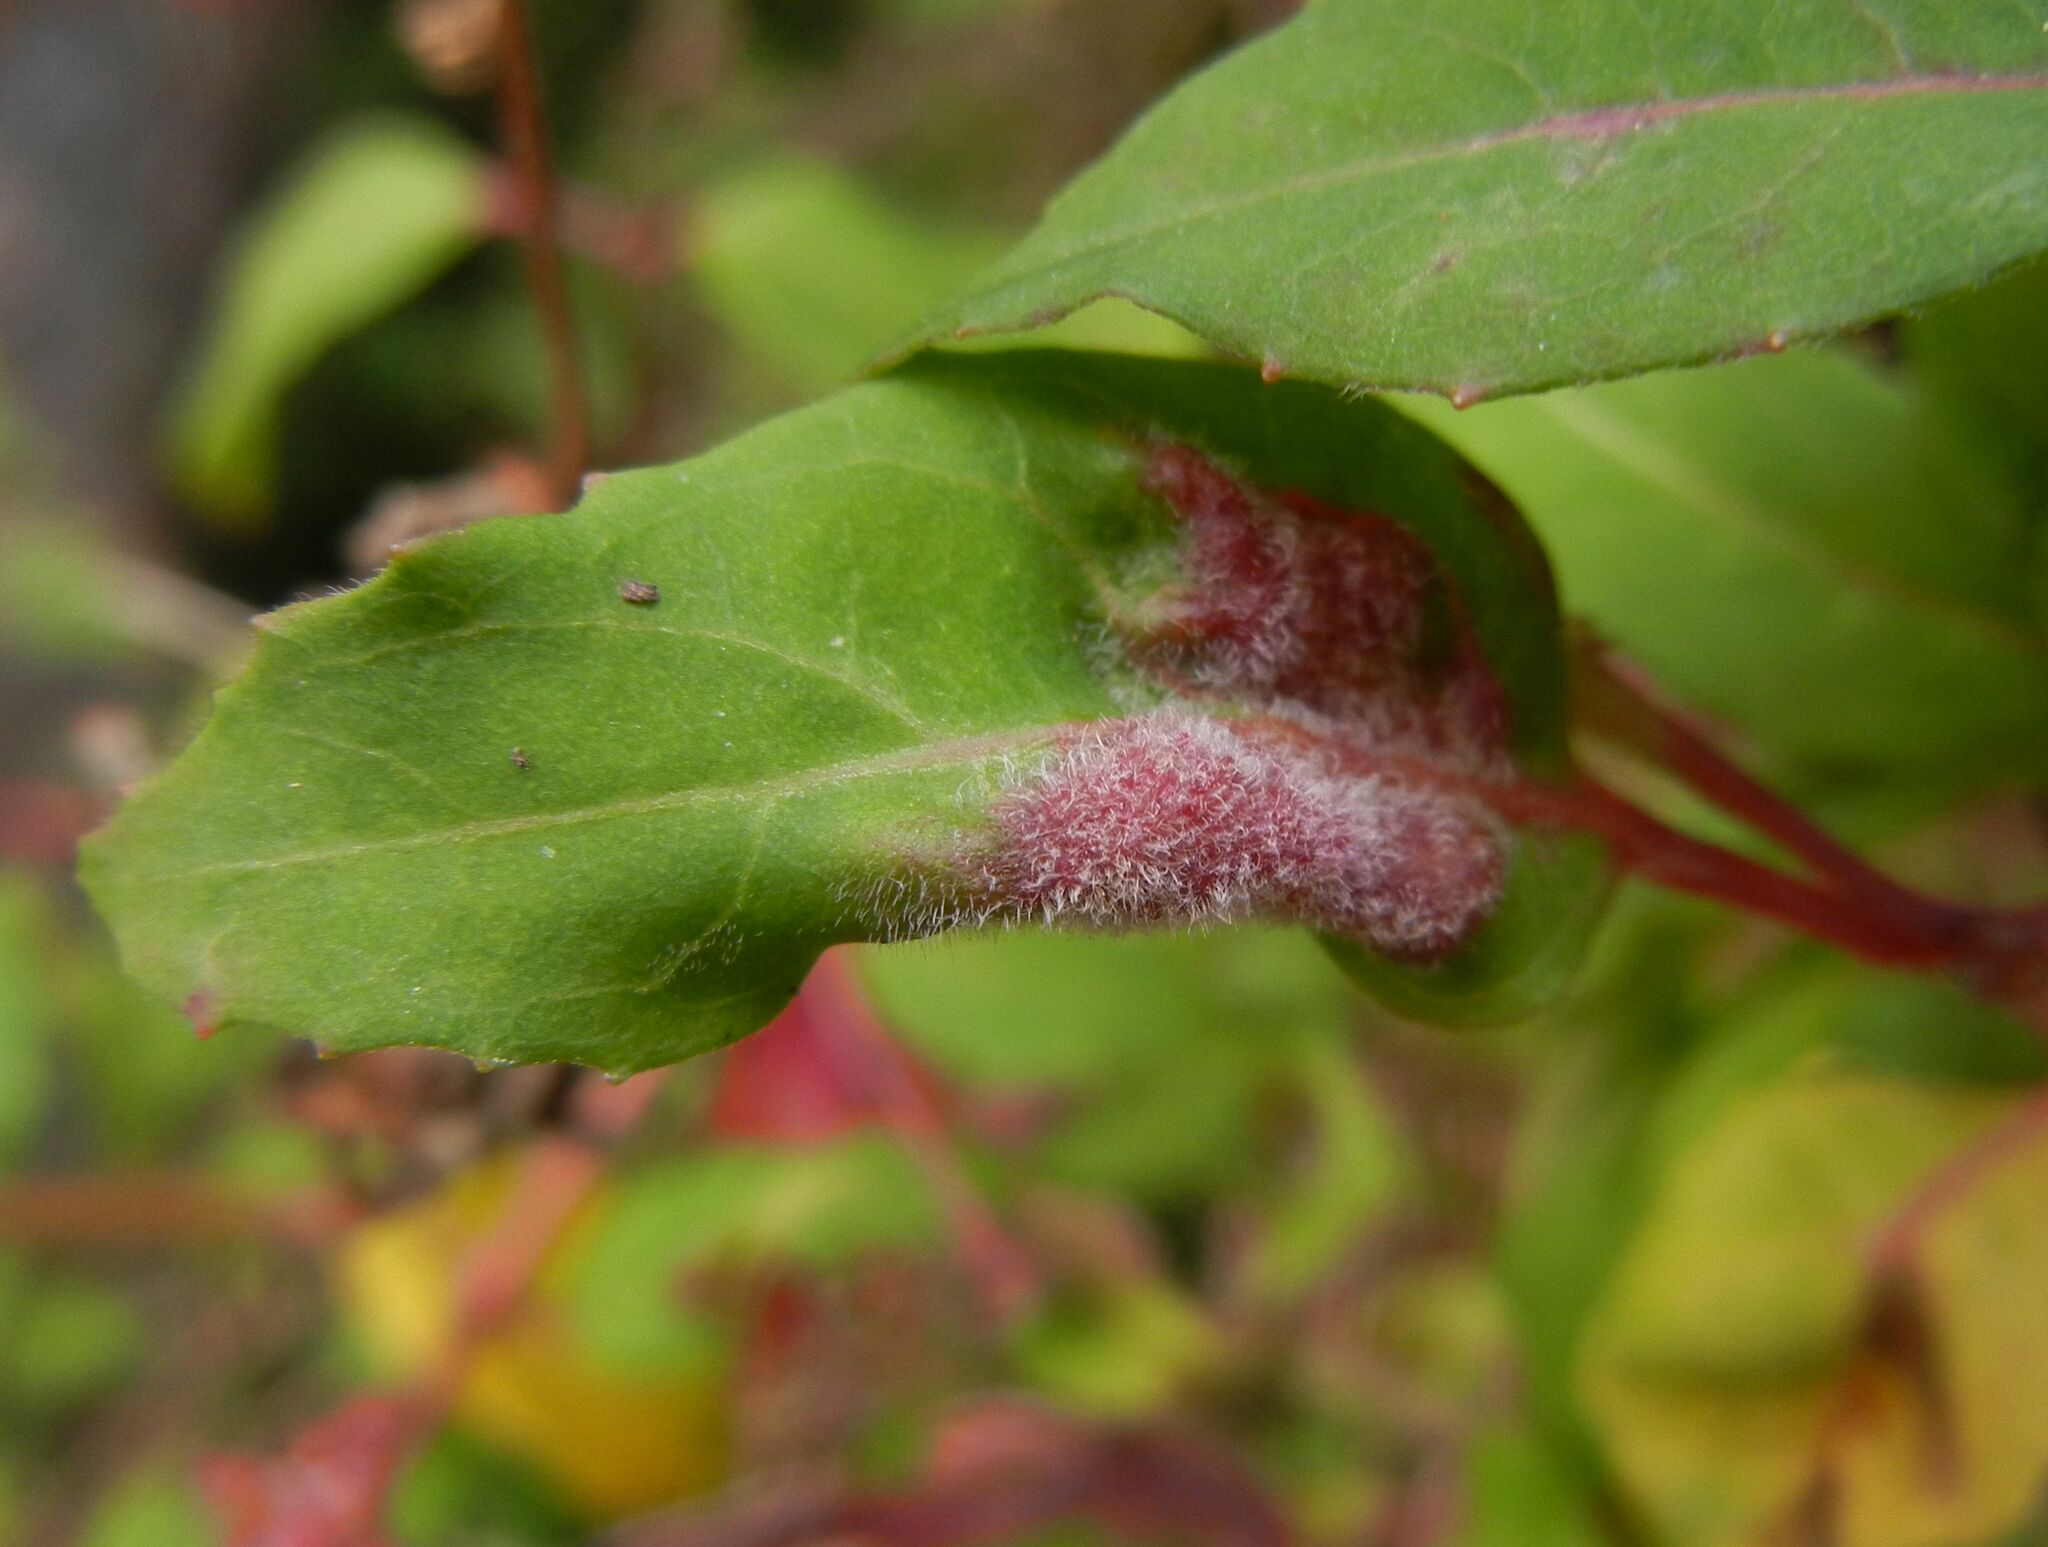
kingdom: Animalia
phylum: Arthropoda
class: Arachnida
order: Trombidiformes
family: Eriophyidae
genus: Aculops
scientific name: Aculops fuchsiae
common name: Fuchsia gall mite
